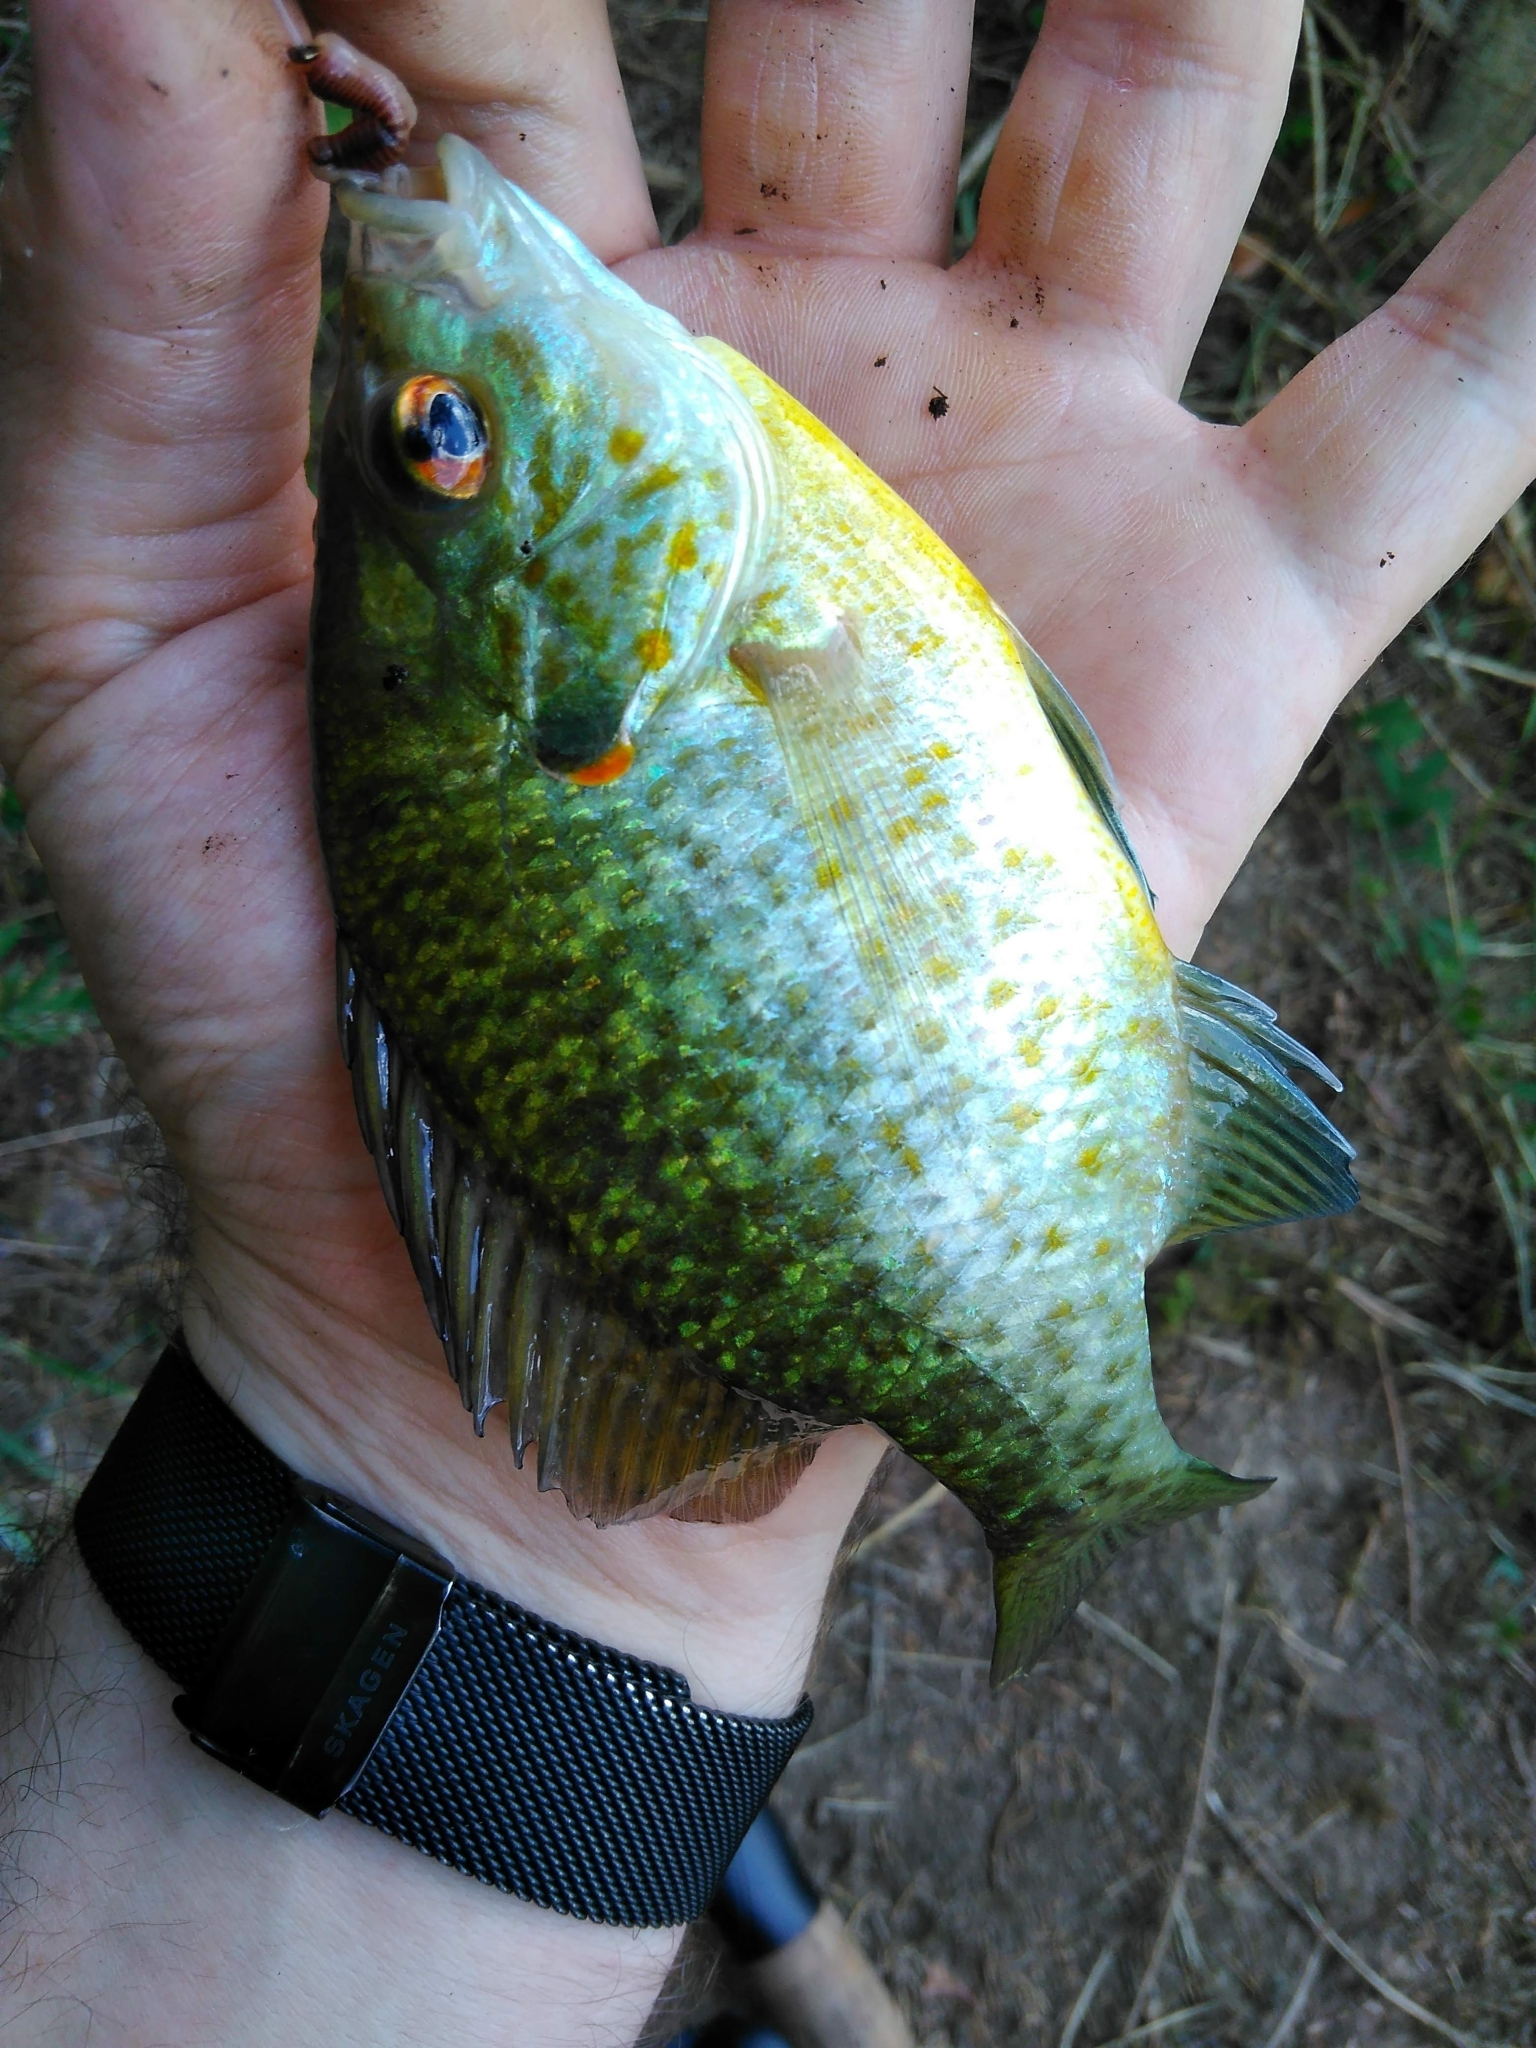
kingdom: Animalia
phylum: Chordata
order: Perciformes
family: Centrarchidae
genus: Lepomis
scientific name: Lepomis microlophus
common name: Redear sunfish
